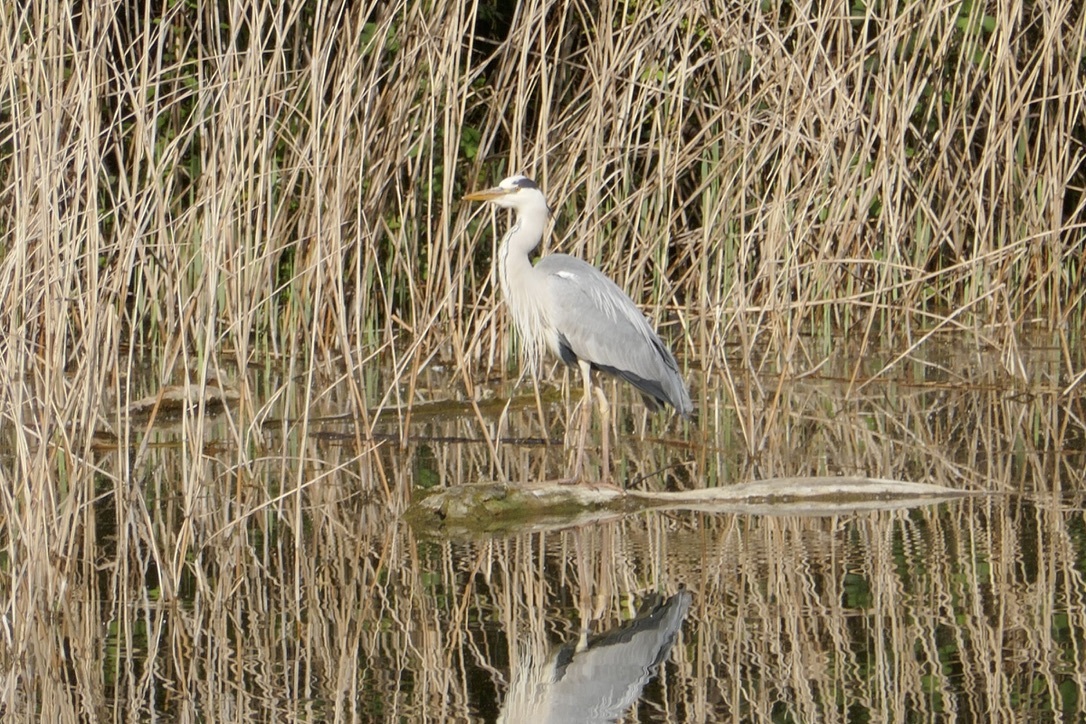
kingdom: Animalia
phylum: Chordata
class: Aves
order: Pelecaniformes
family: Ardeidae
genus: Ardea
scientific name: Ardea cinerea
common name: Grey heron
